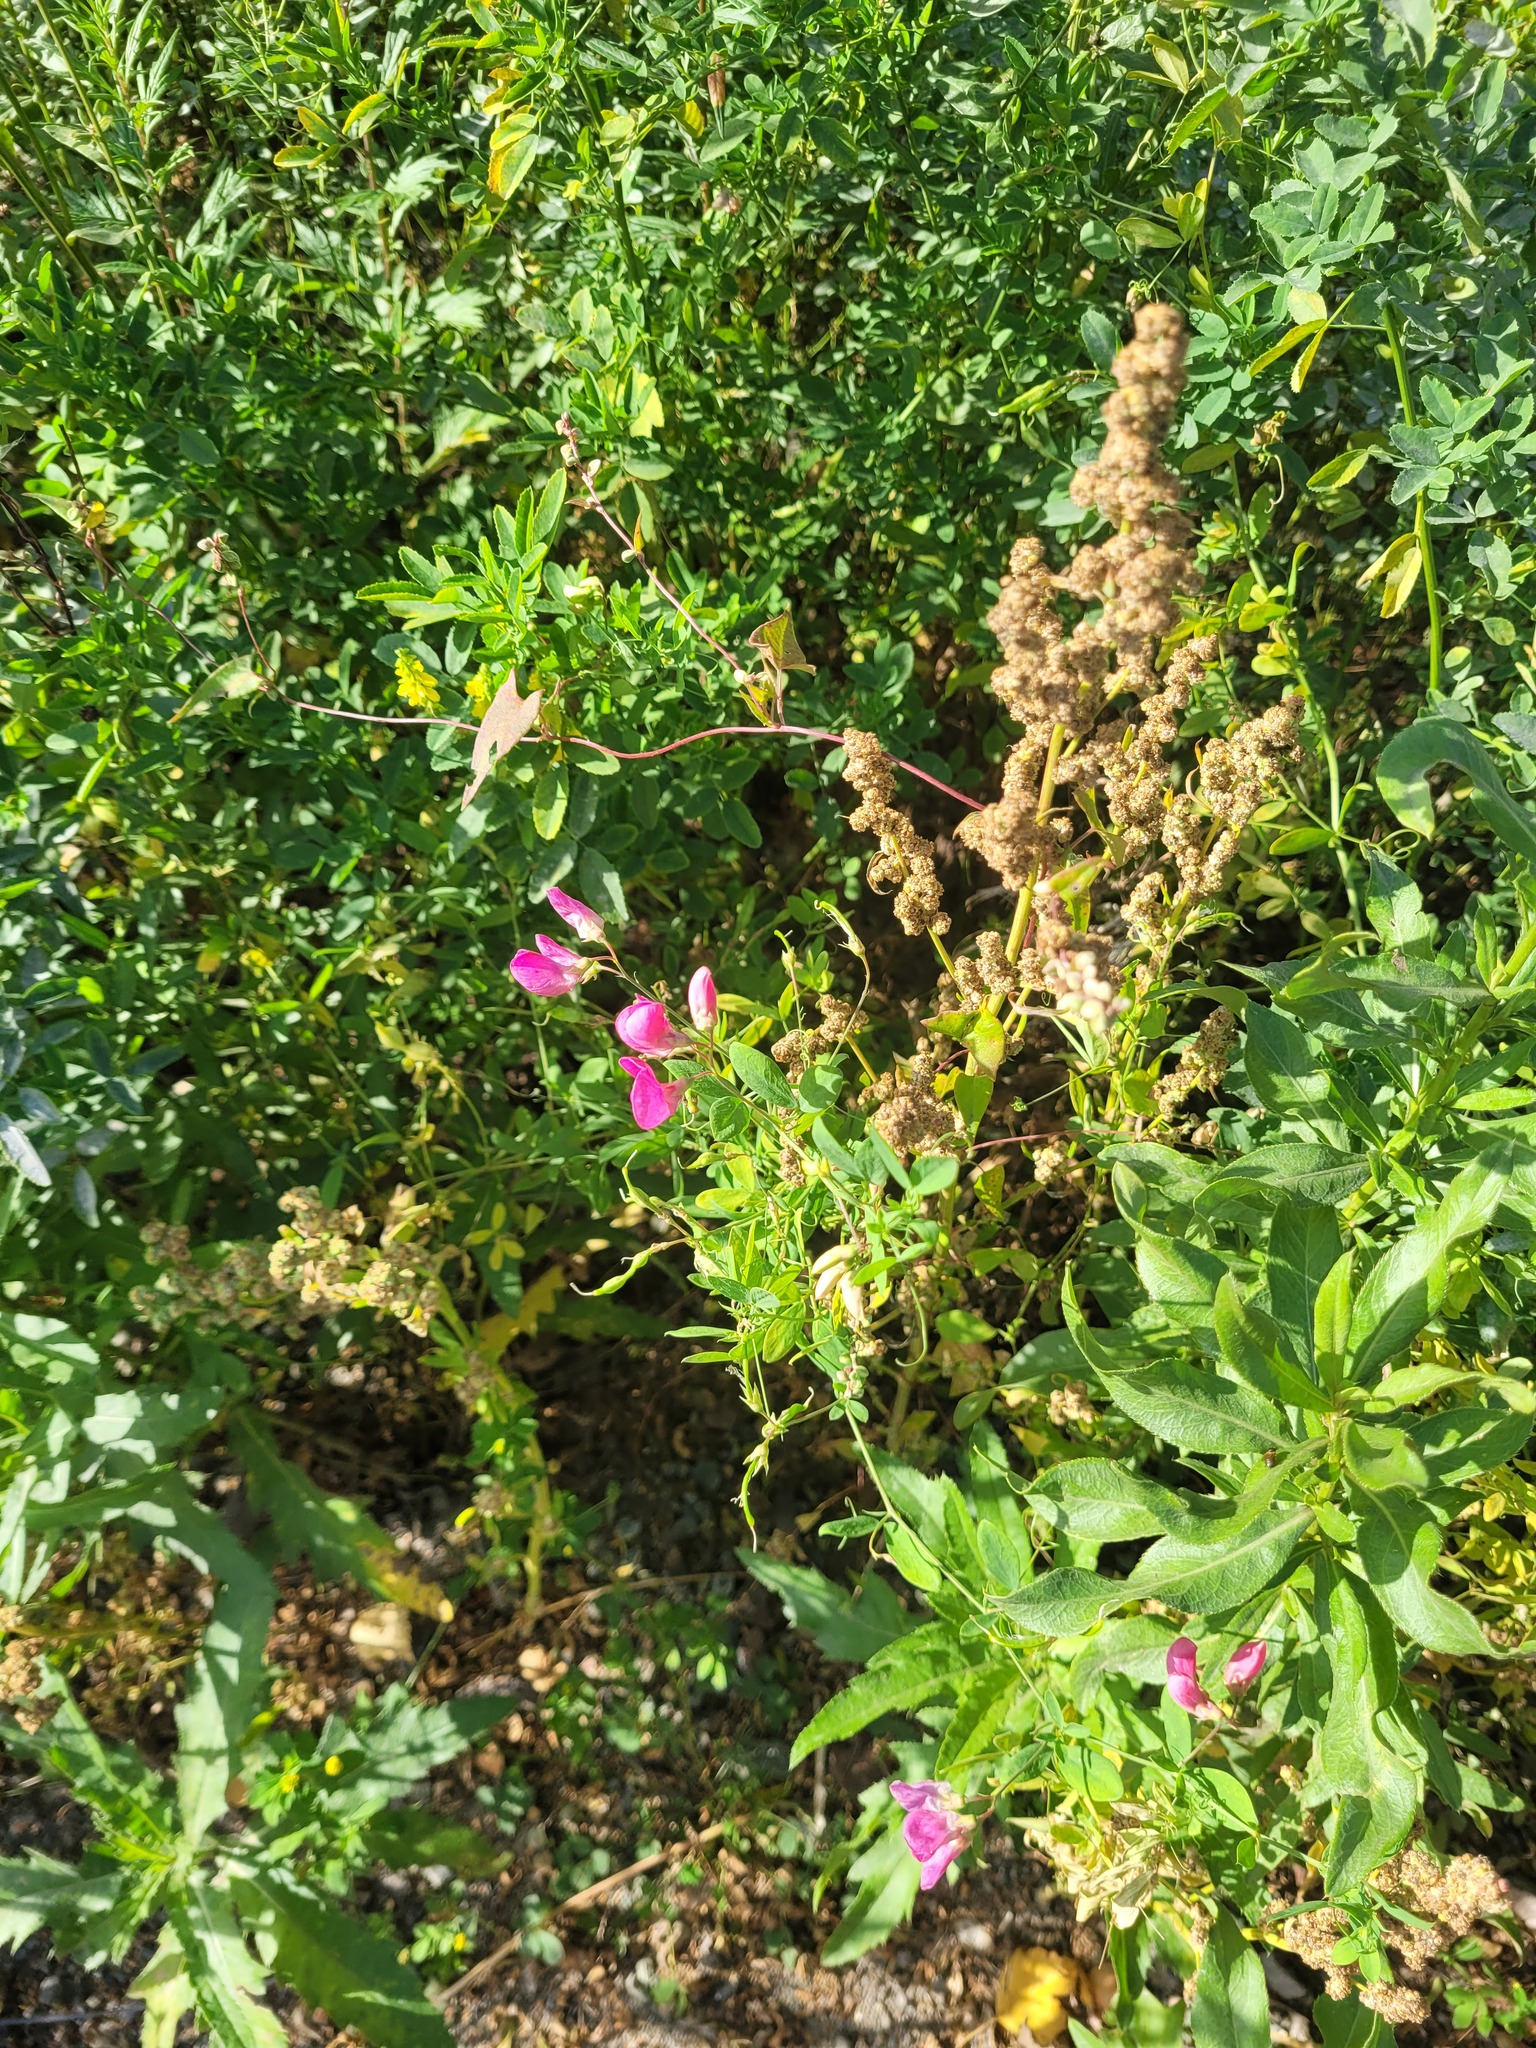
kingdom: Plantae
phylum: Tracheophyta
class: Magnoliopsida
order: Fabales
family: Fabaceae
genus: Lathyrus
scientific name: Lathyrus tuberosus
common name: Tuberous pea
